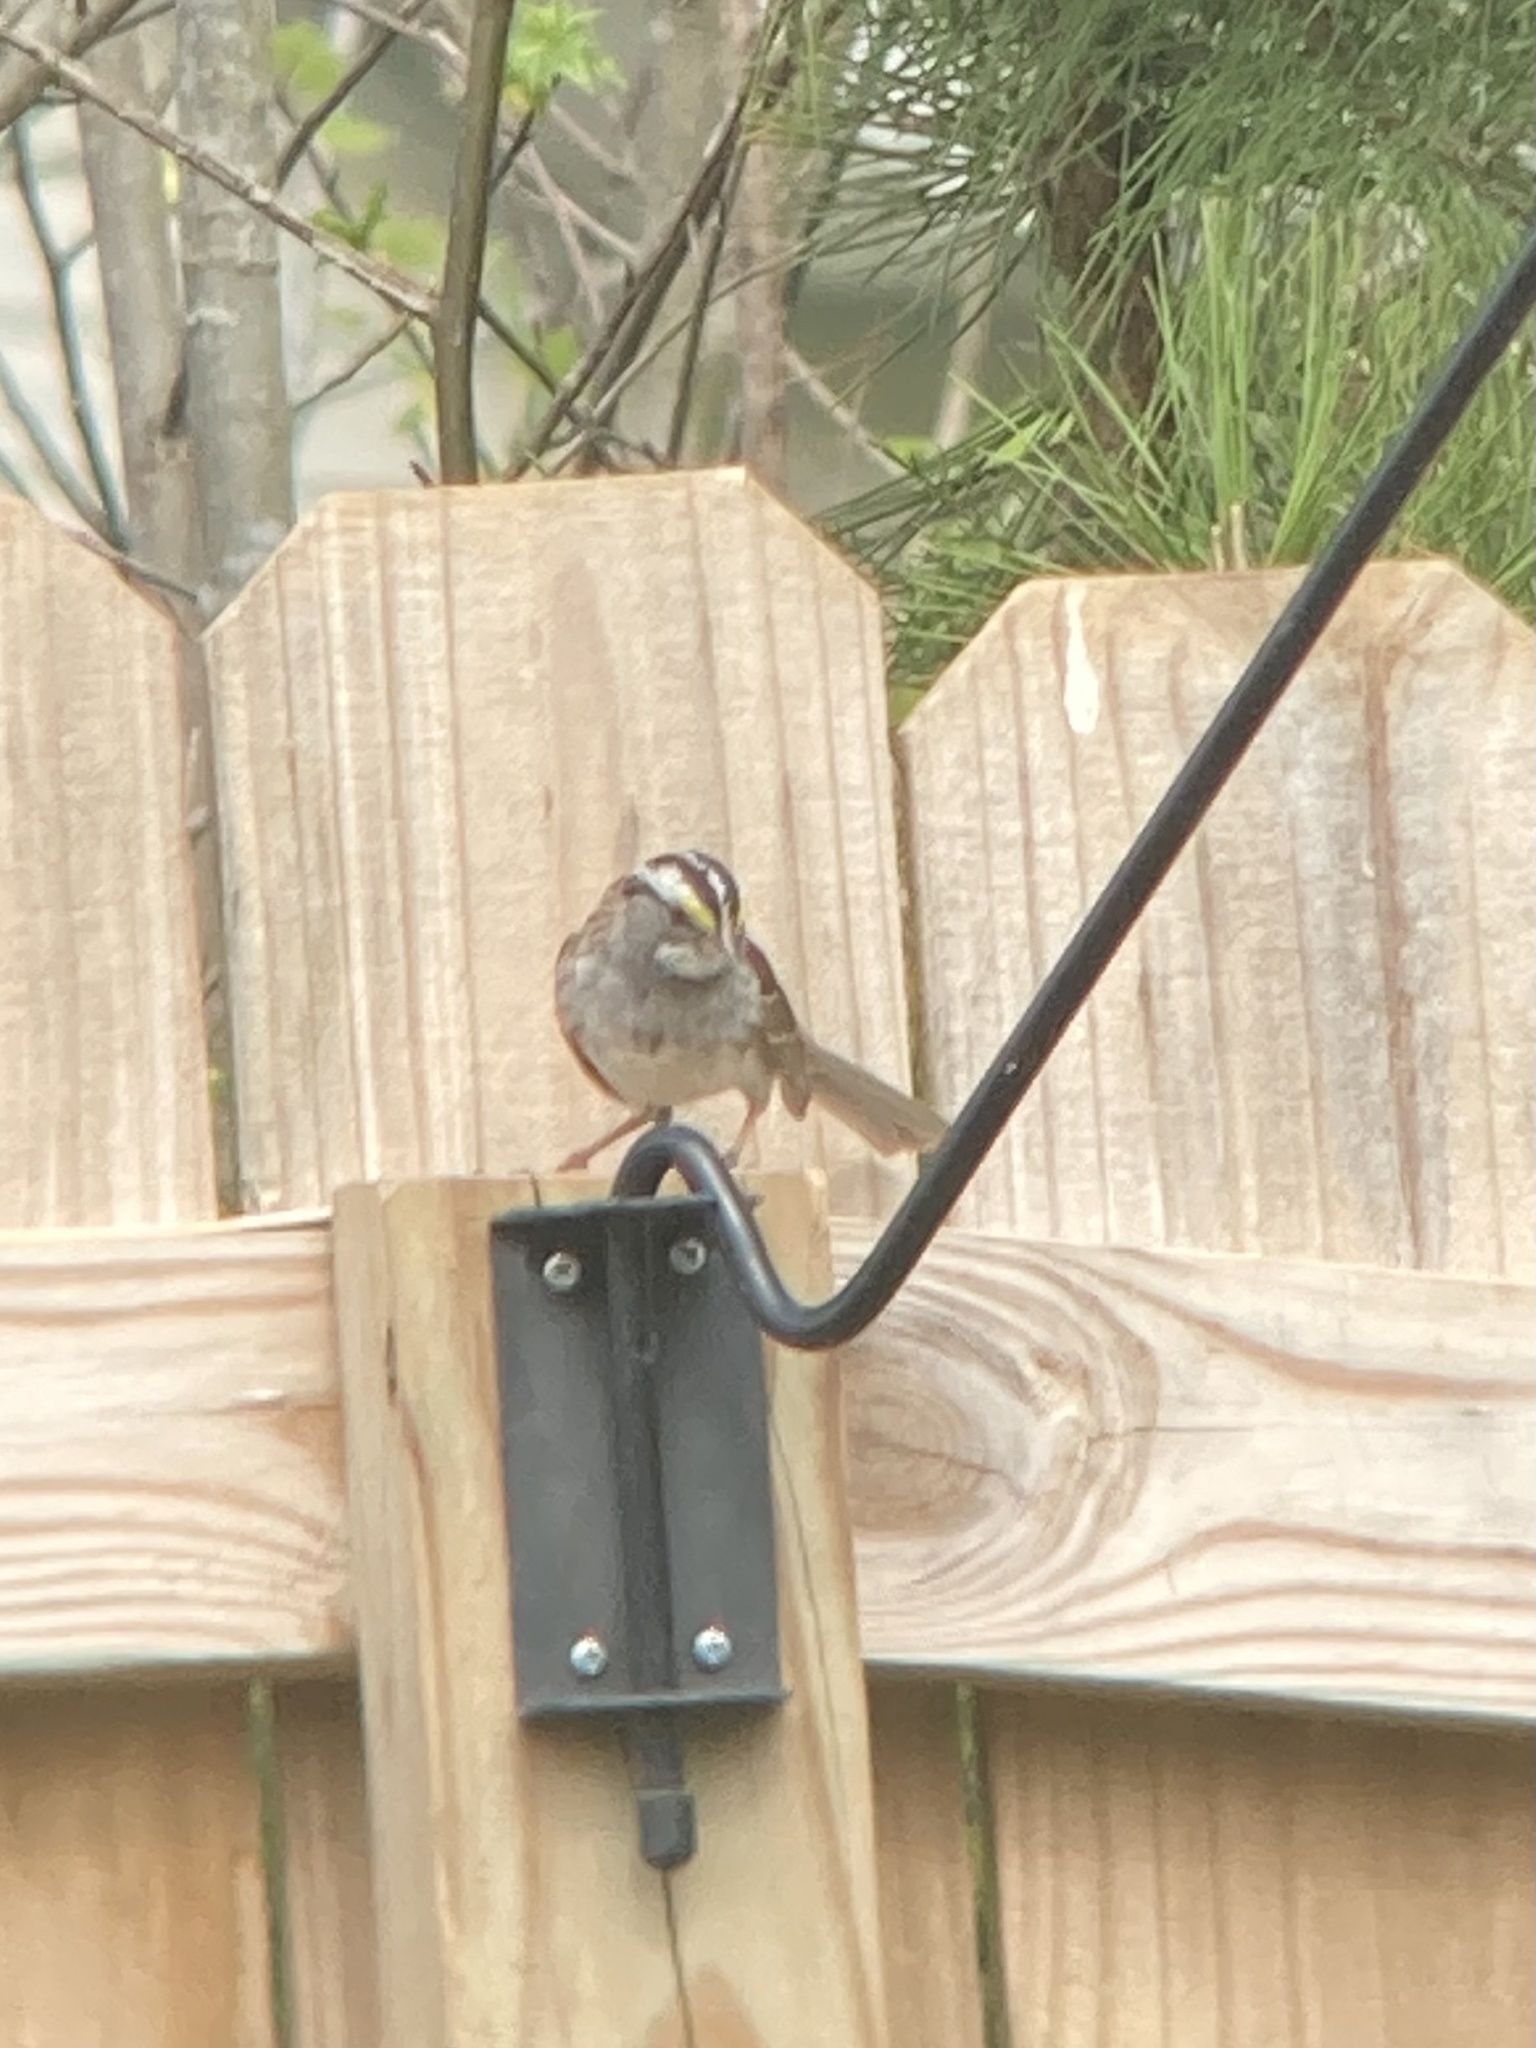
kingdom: Animalia
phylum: Chordata
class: Aves
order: Passeriformes
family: Passerellidae
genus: Zonotrichia
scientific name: Zonotrichia albicollis
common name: White-throated sparrow
